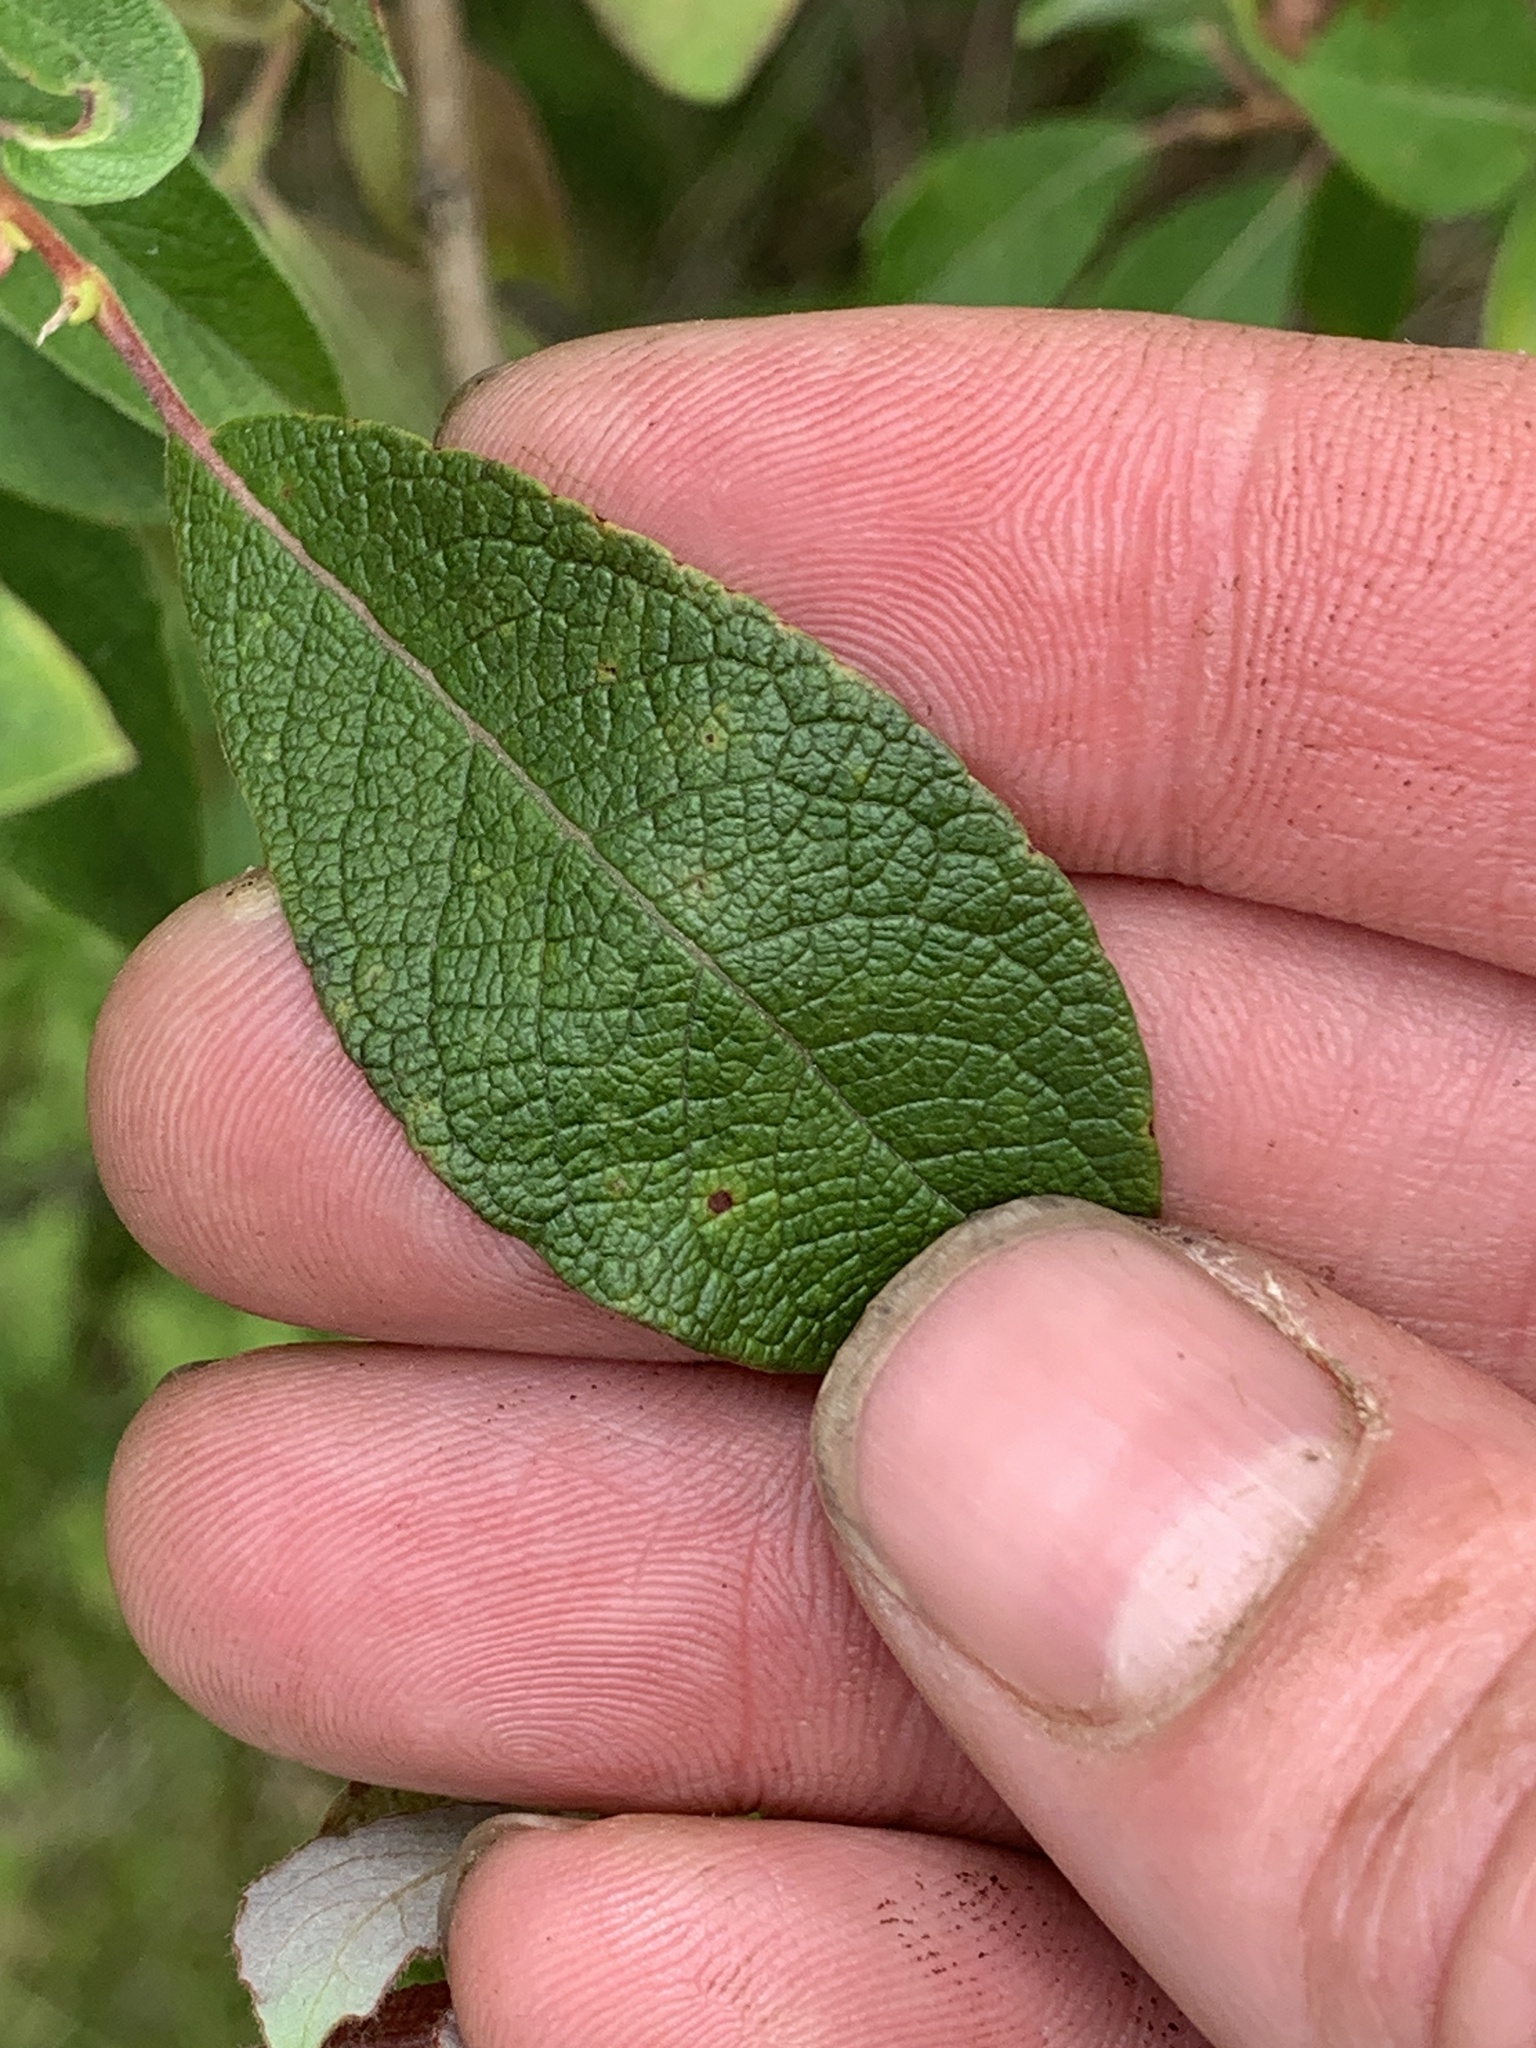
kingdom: Plantae
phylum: Tracheophyta
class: Magnoliopsida
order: Malpighiales
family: Salicaceae
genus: Salix
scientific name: Salix bebbiana
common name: Bebb's willow
